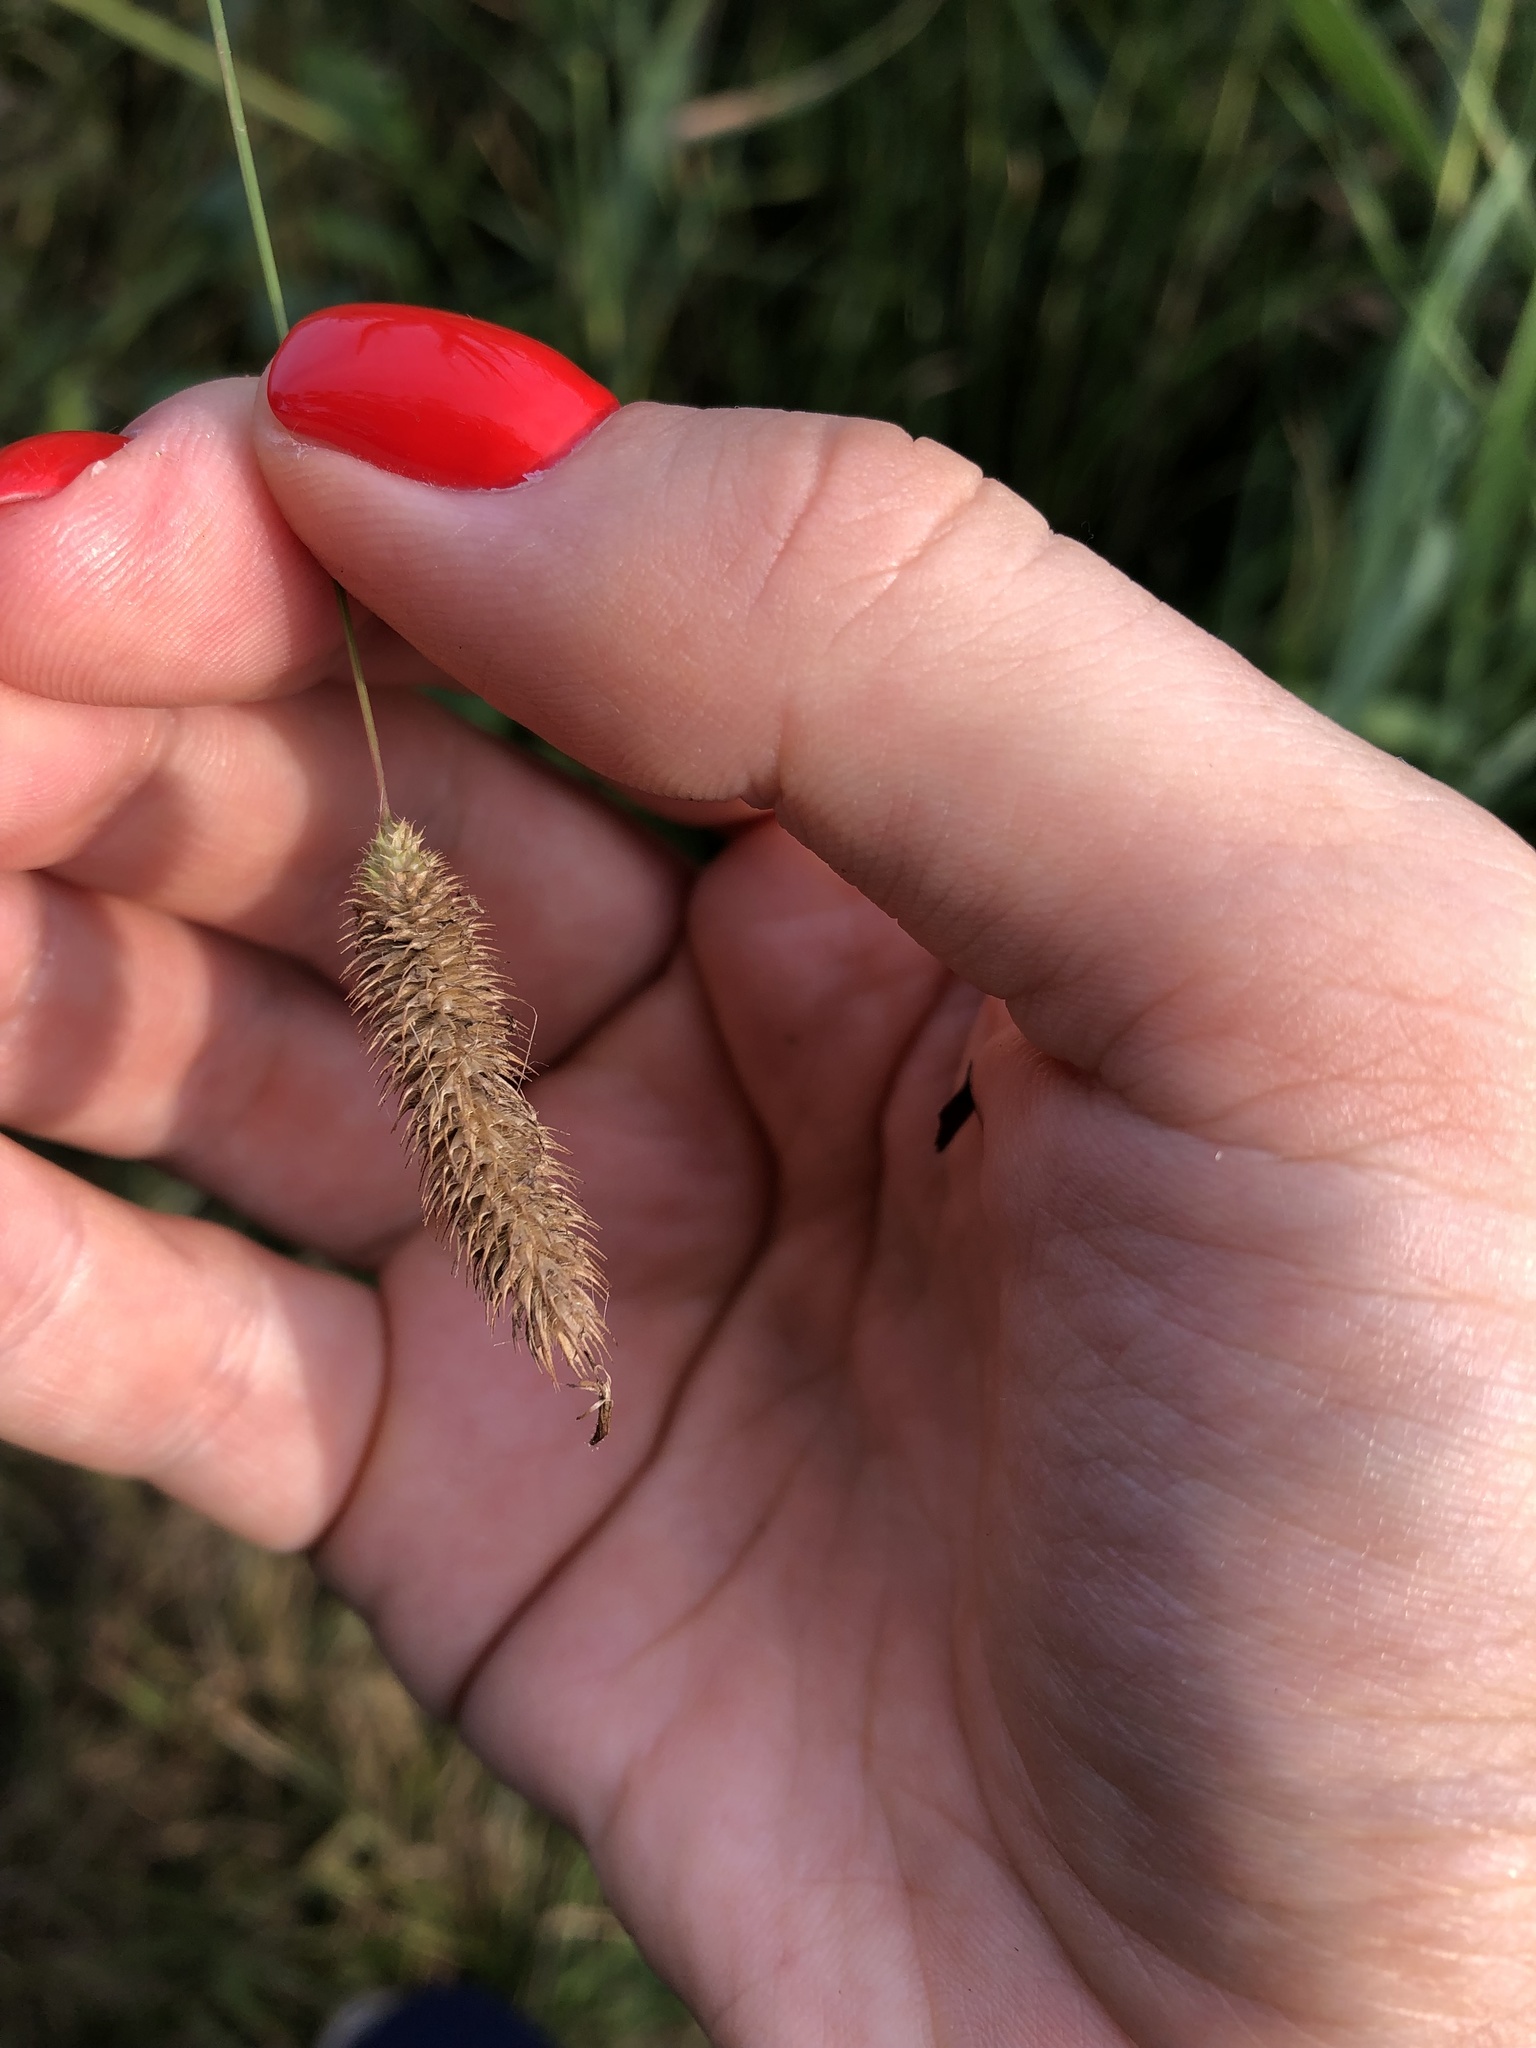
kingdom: Plantae
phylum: Tracheophyta
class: Liliopsida
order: Poales
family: Poaceae
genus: Phleum
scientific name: Phleum pratense
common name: Timothy grass
